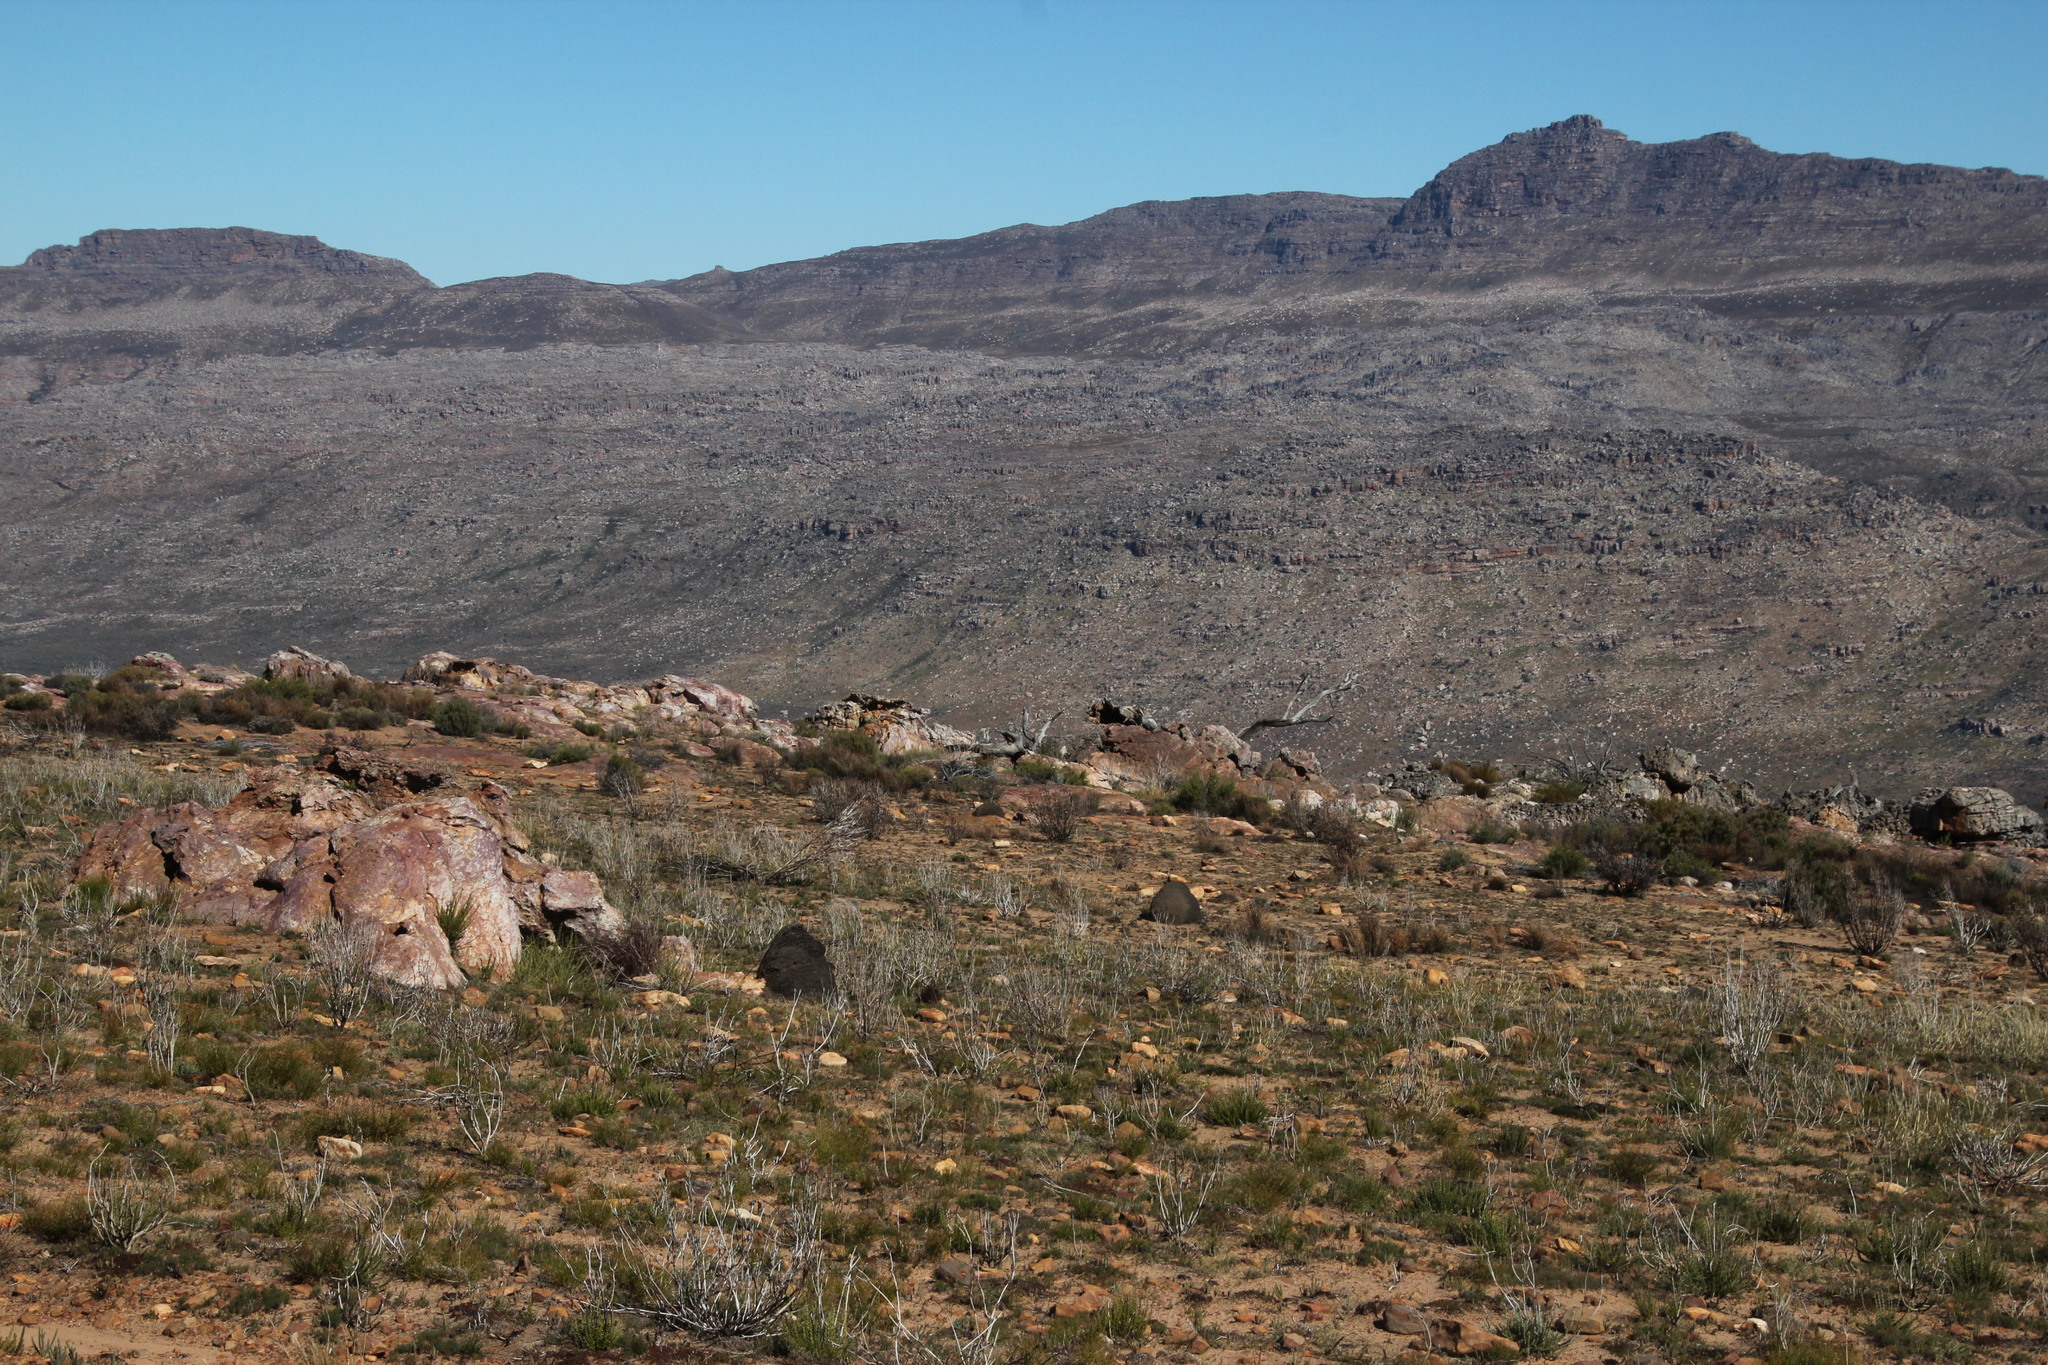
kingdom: Animalia
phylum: Arthropoda
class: Insecta
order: Blattodea
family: Termitidae
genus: Amitermes
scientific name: Amitermes hastatus
